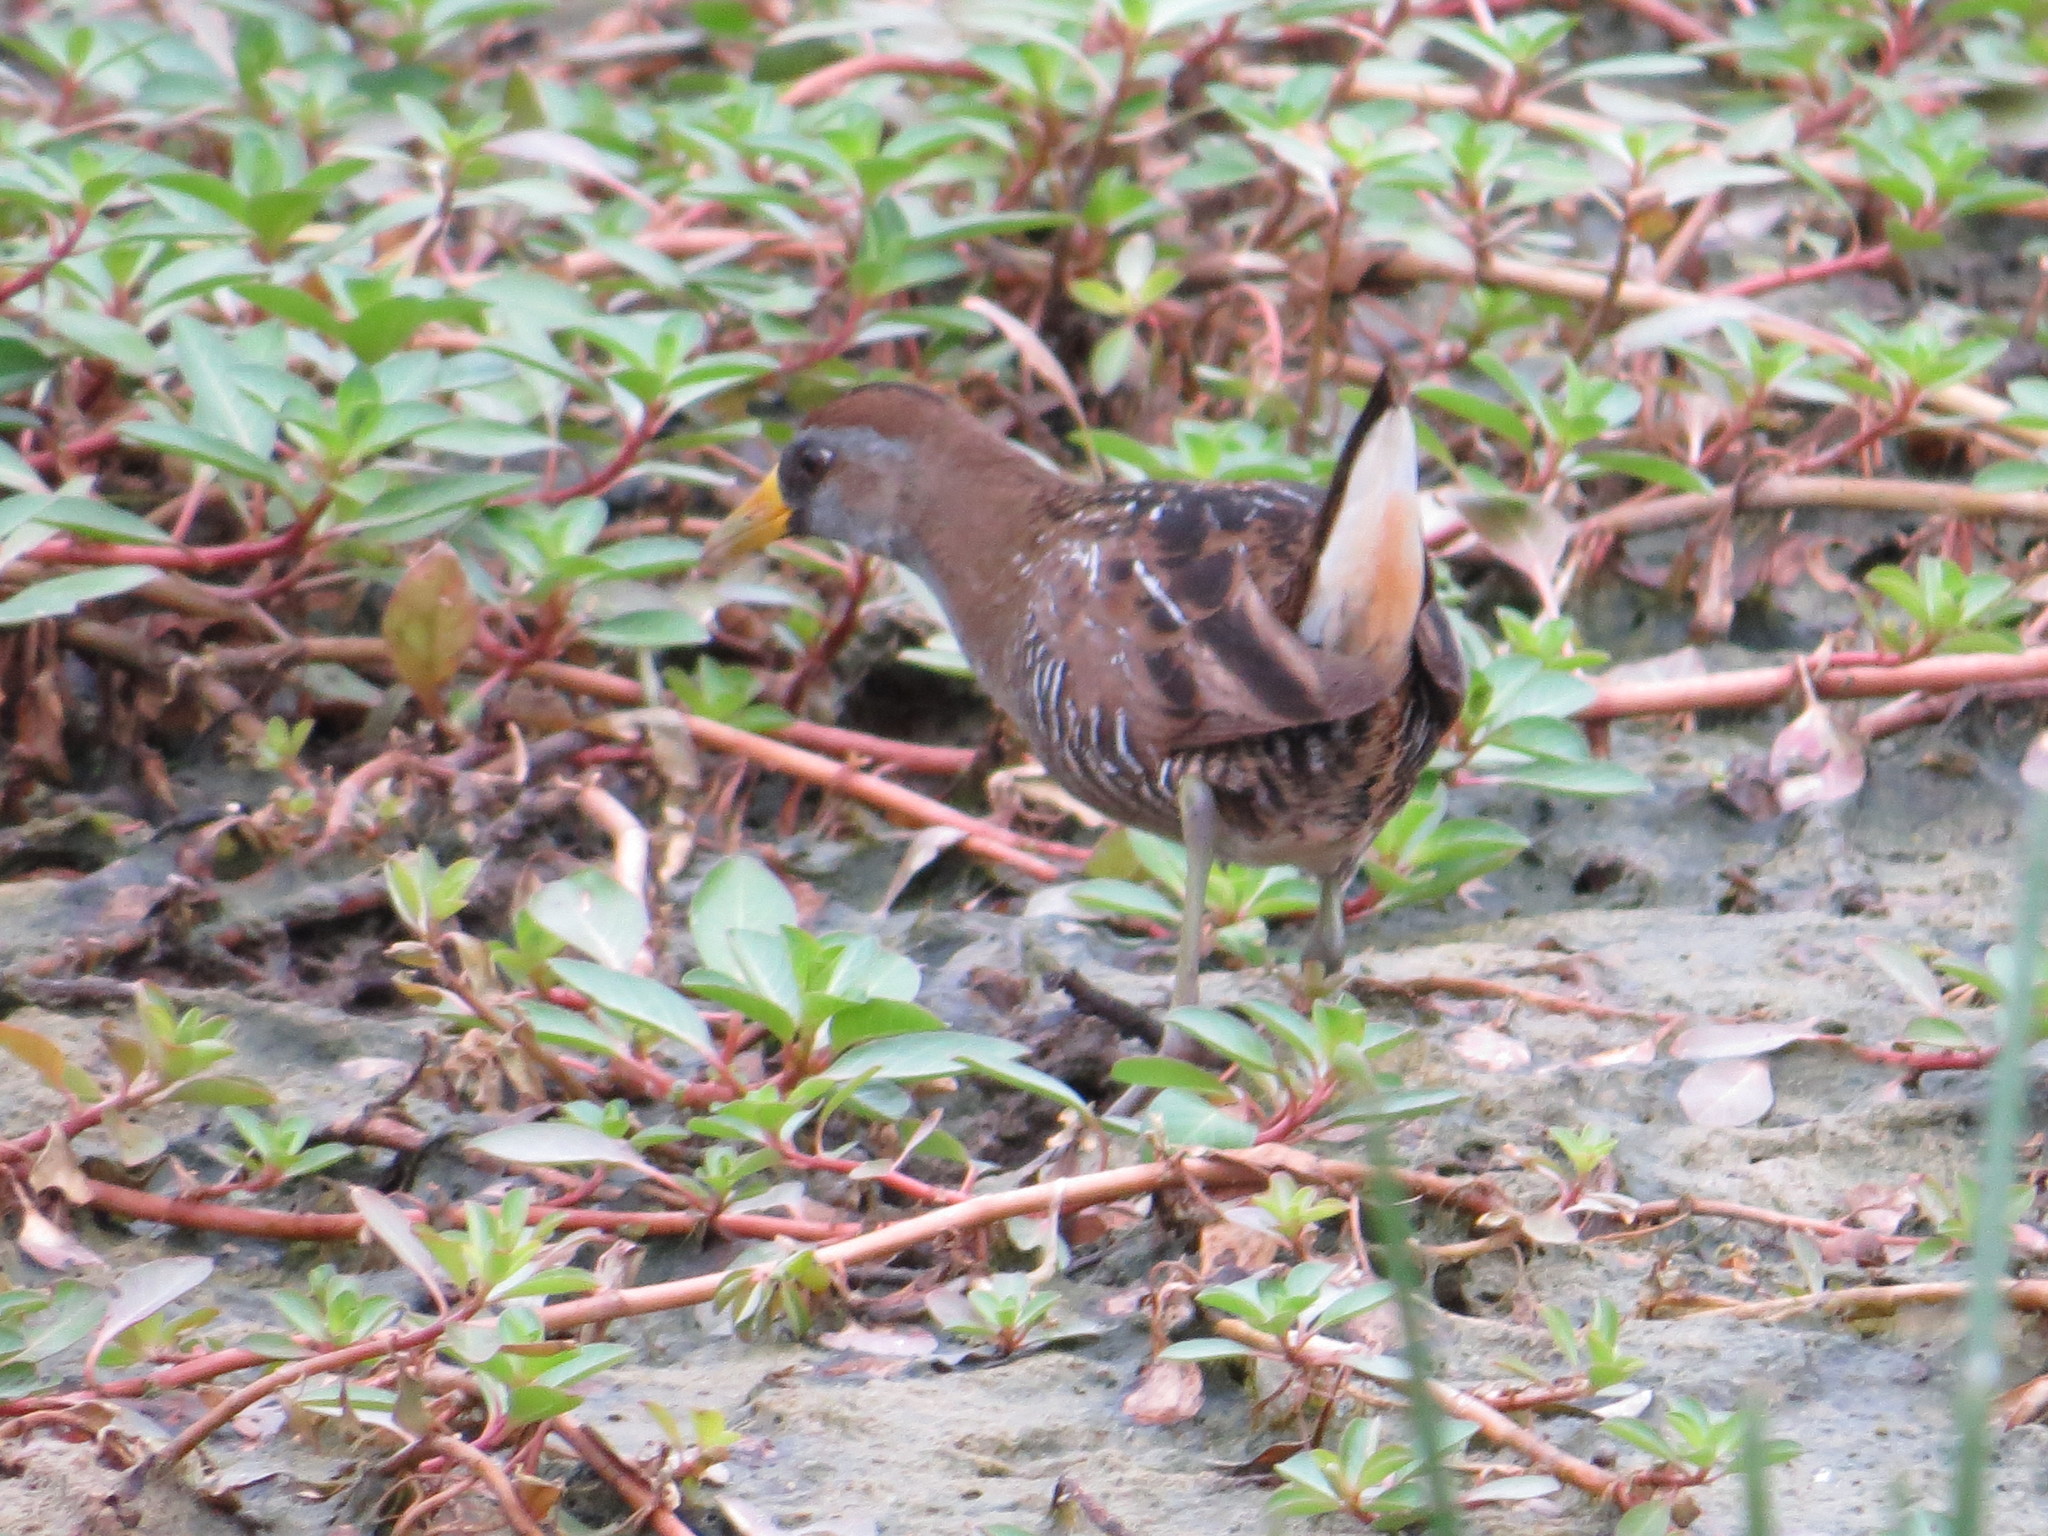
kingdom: Animalia
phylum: Chordata
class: Aves
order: Gruiformes
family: Rallidae
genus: Porzana
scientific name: Porzana carolina
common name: Sora
